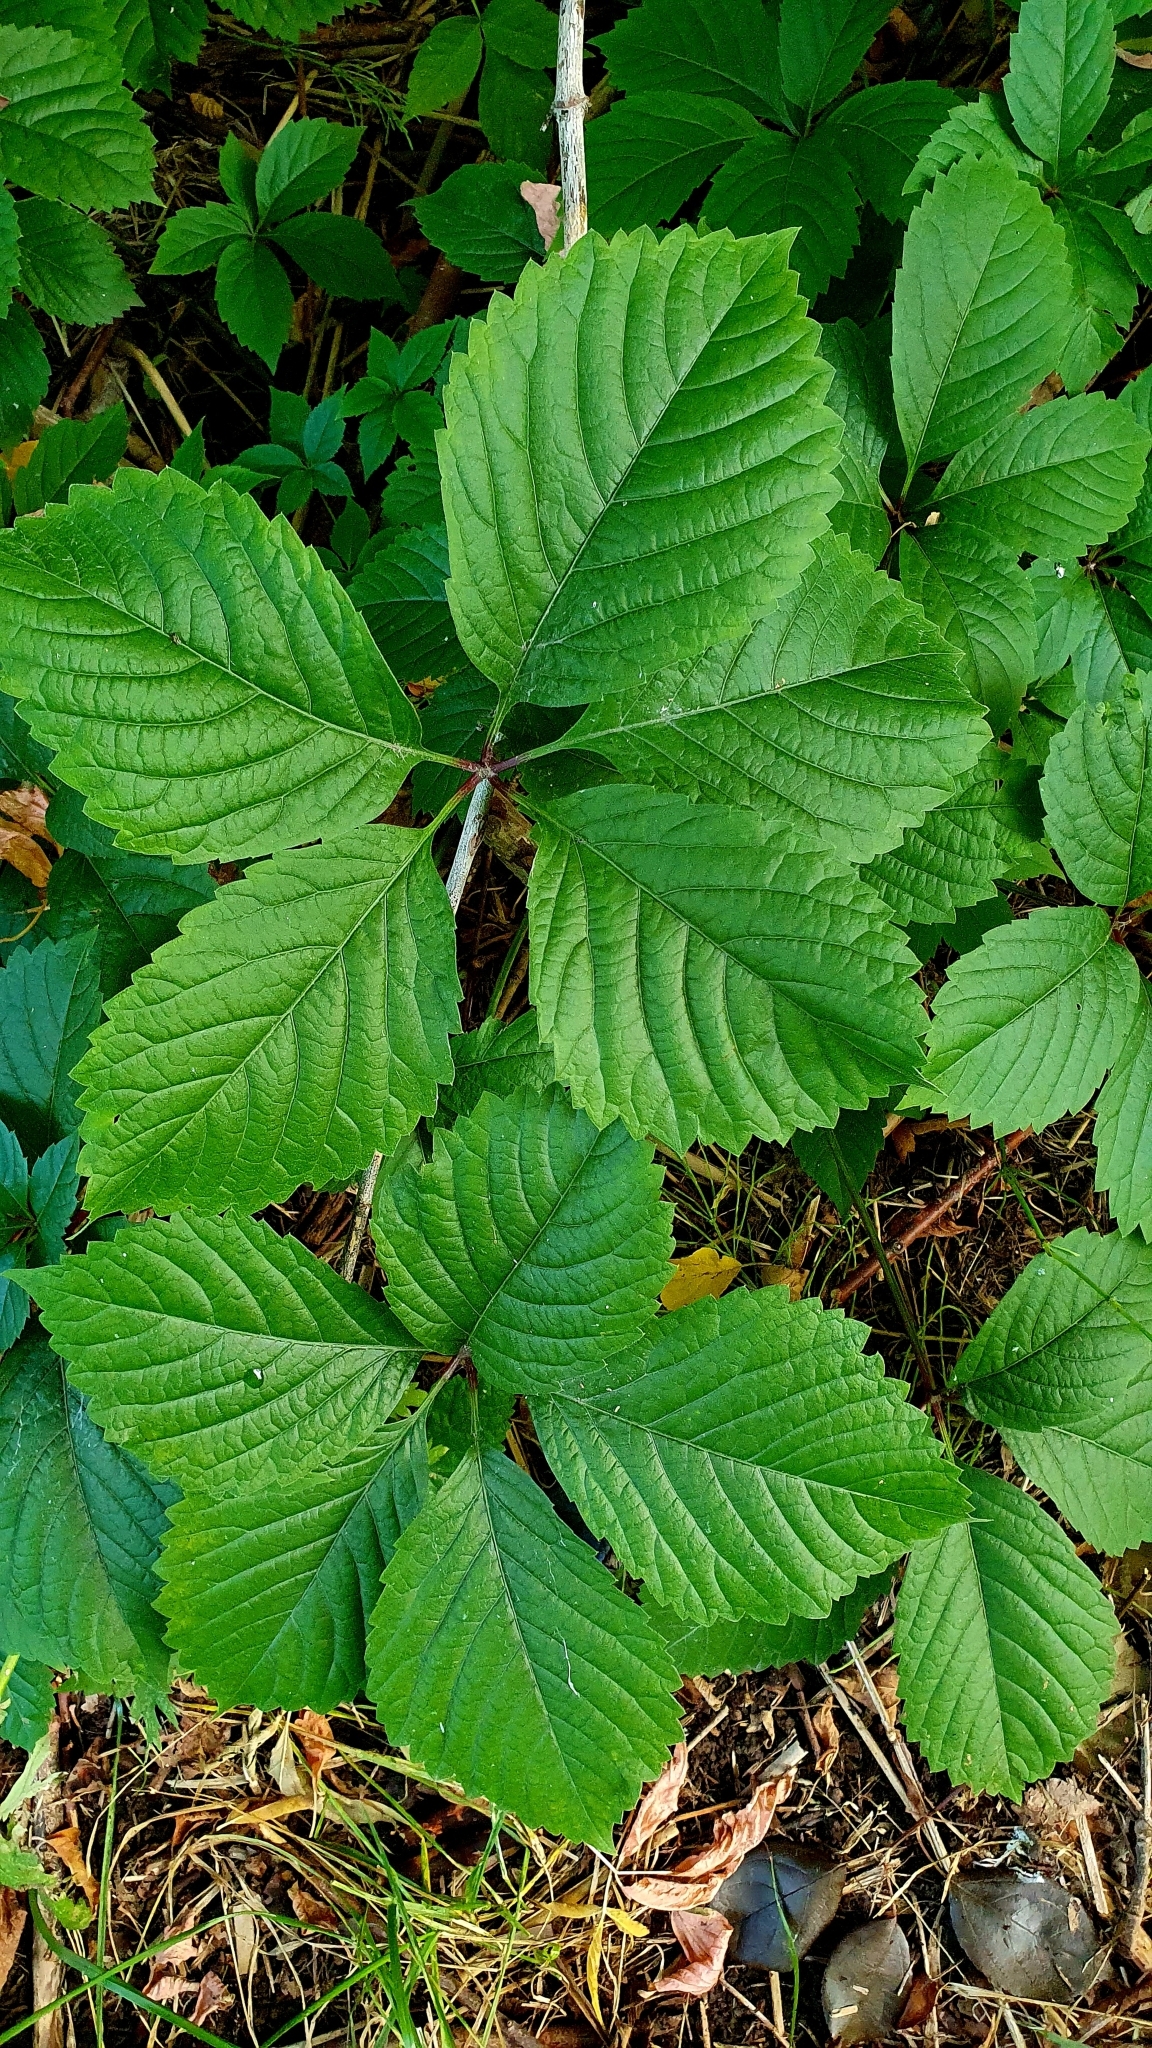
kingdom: Plantae
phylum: Tracheophyta
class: Magnoliopsida
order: Vitales
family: Vitaceae
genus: Parthenocissus
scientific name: Parthenocissus inserta
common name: False virginia-creeper
